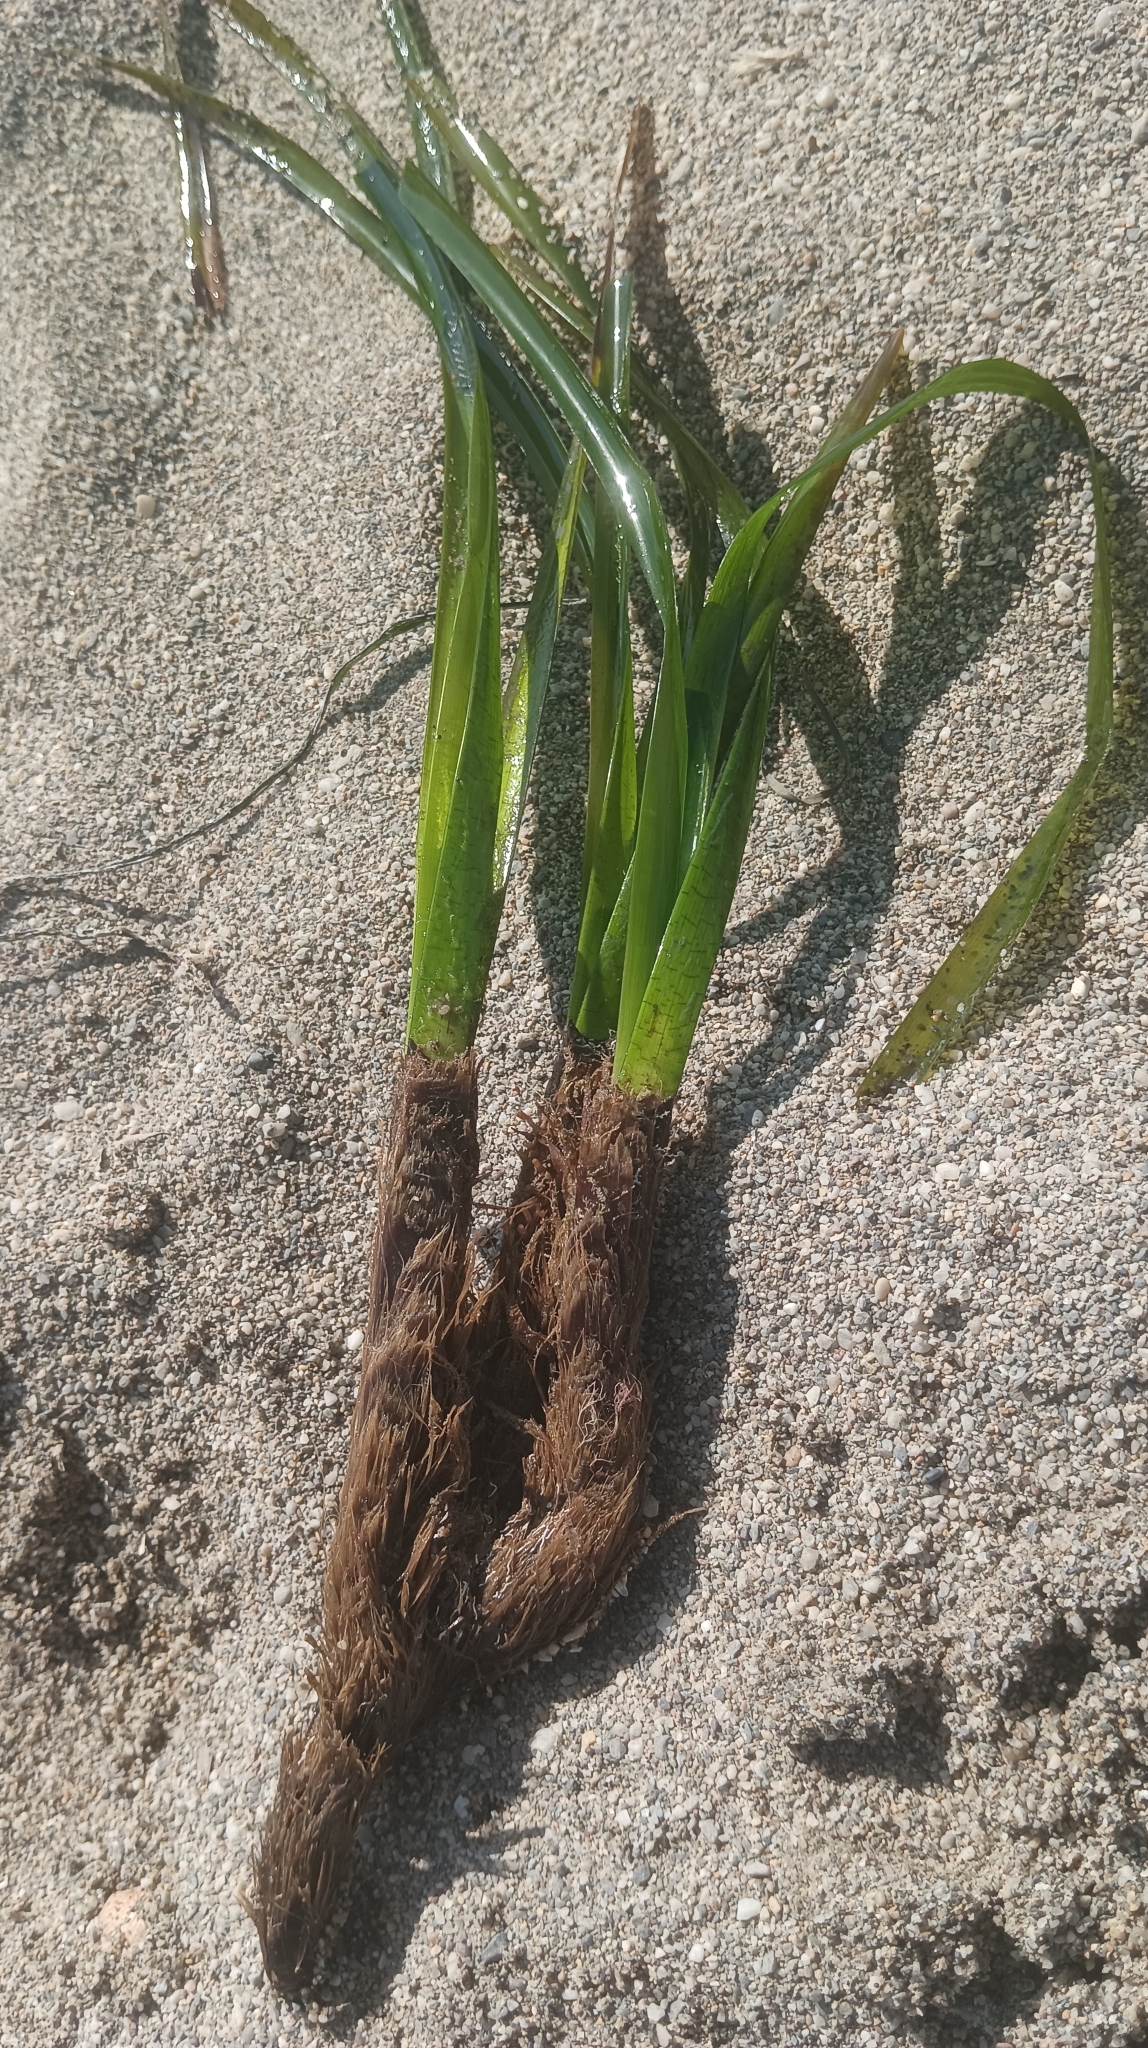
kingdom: Plantae
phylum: Tracheophyta
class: Liliopsida
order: Alismatales
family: Posidoniaceae
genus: Posidonia
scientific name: Posidonia oceanica
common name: Mediterranean tapeweed
